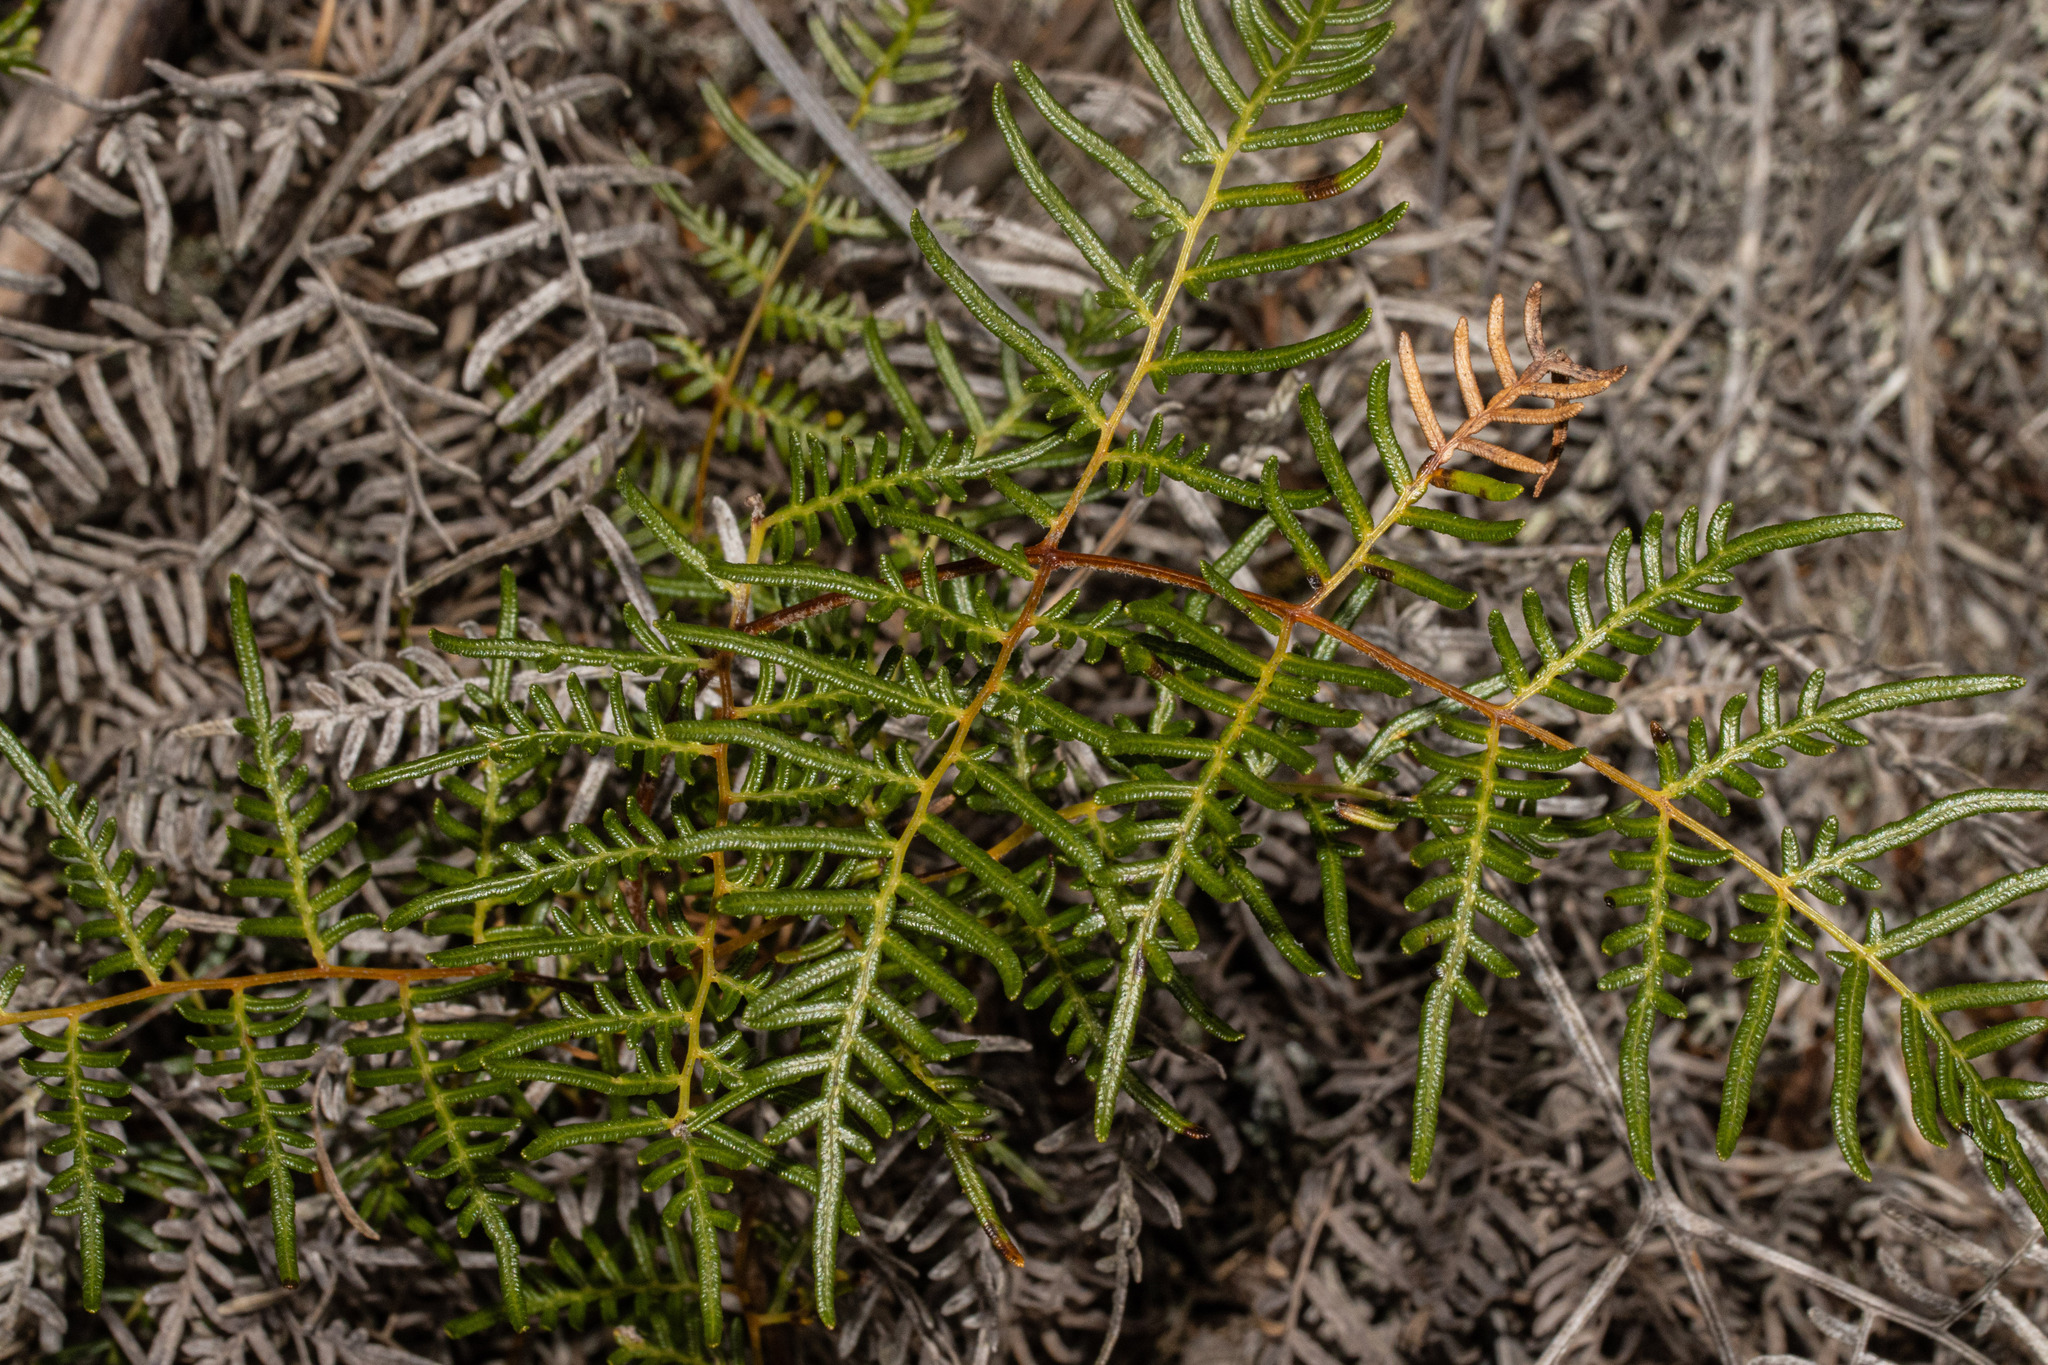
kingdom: Plantae
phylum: Tracheophyta
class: Polypodiopsida
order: Polypodiales
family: Dennstaedtiaceae
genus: Pteridium
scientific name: Pteridium esculentum
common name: Bracken fern
